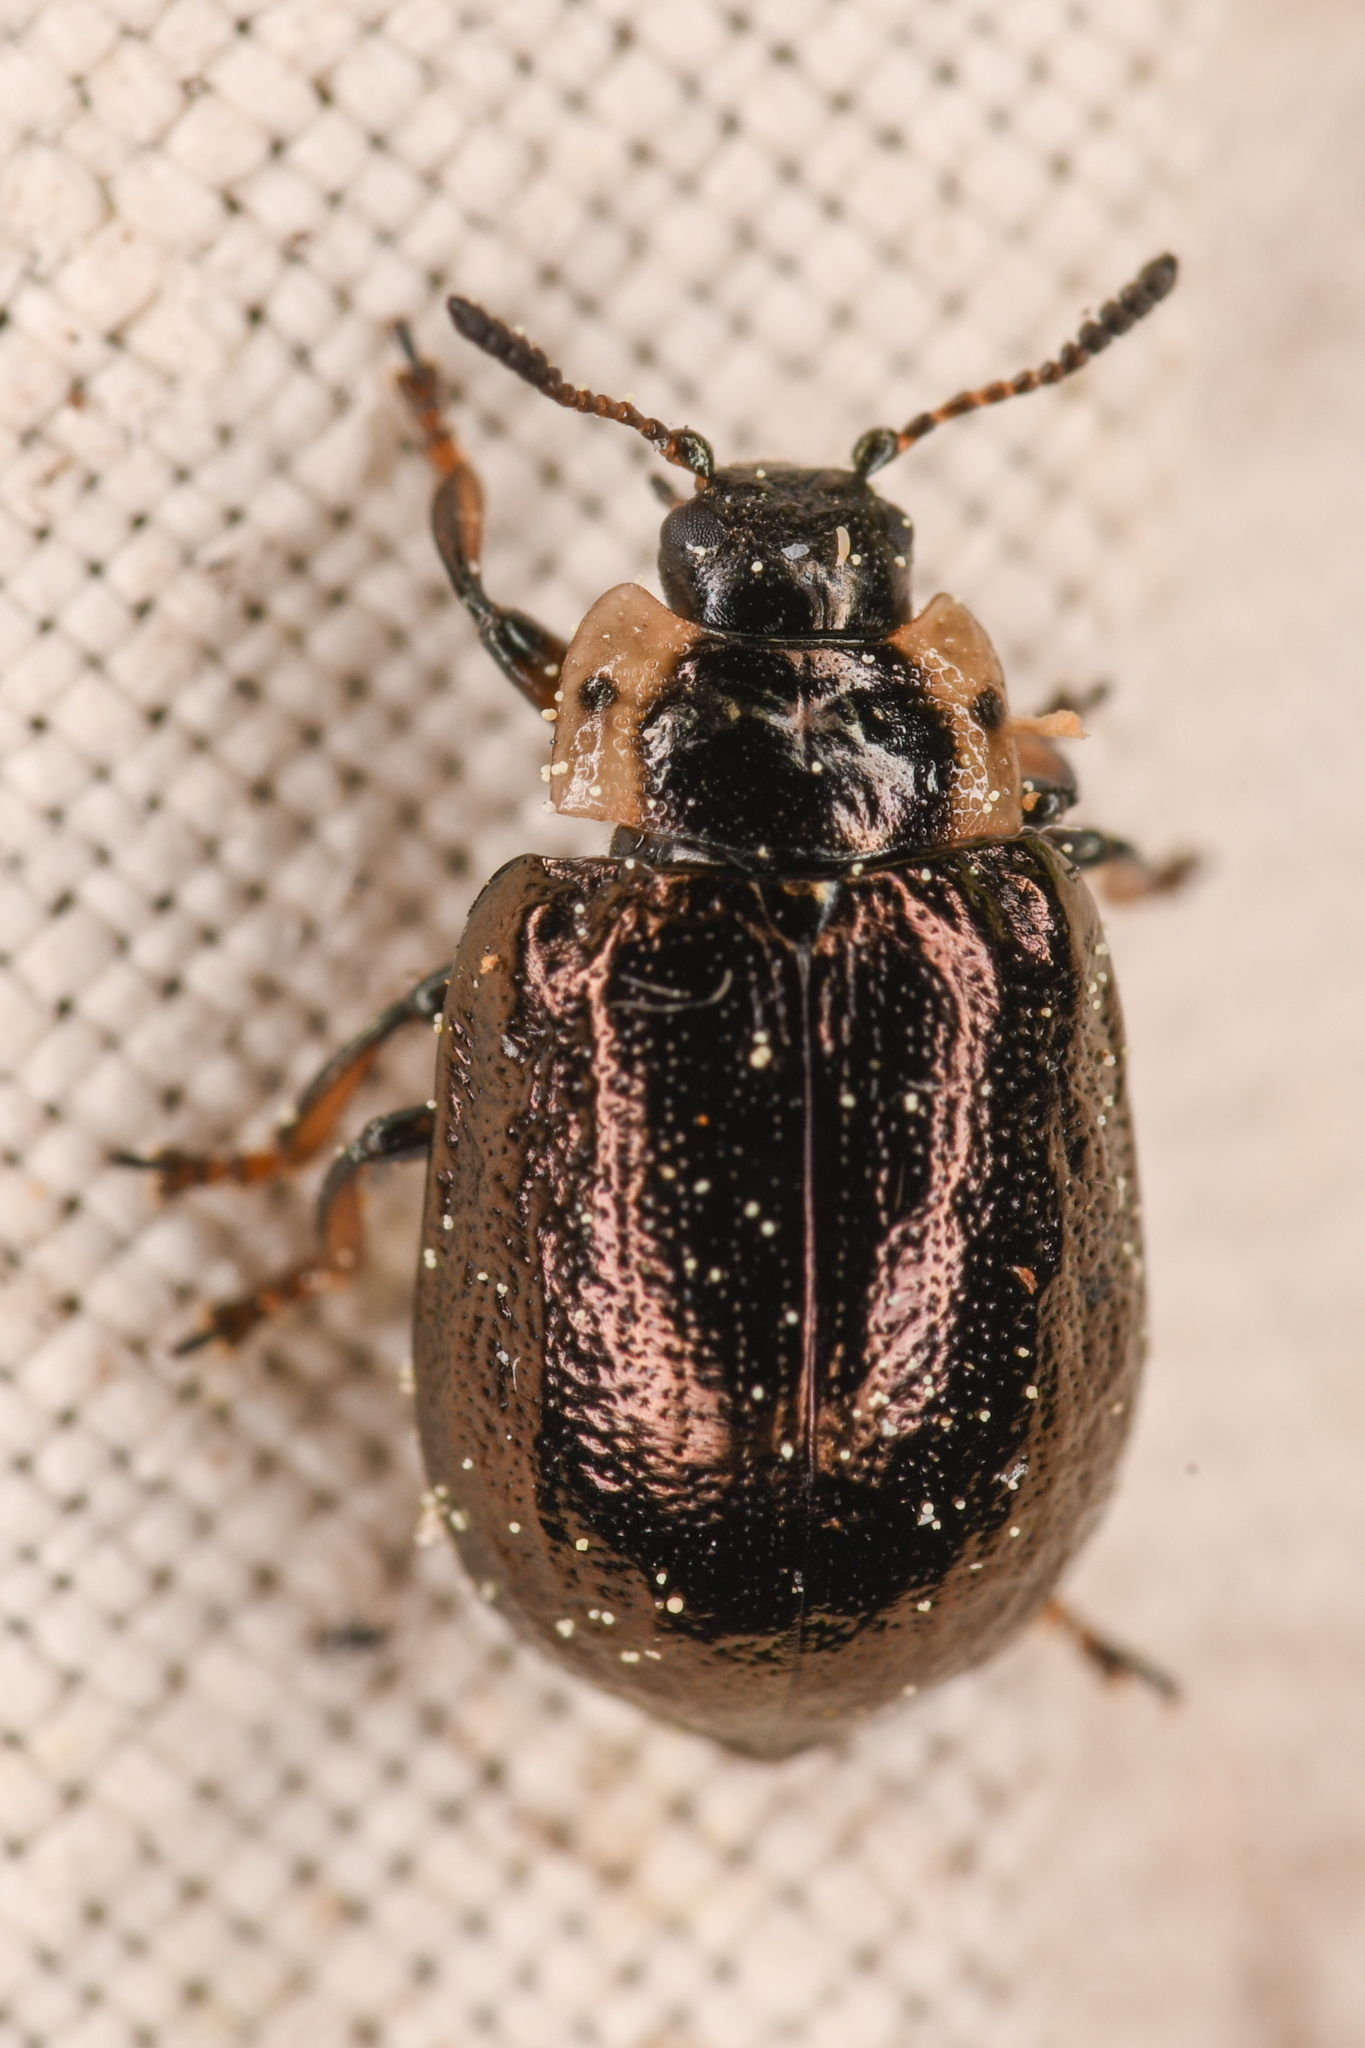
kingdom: Animalia
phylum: Arthropoda
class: Insecta
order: Coleoptera
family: Chrysomelidae
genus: Chrysomela
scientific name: Chrysomela schaefferi
